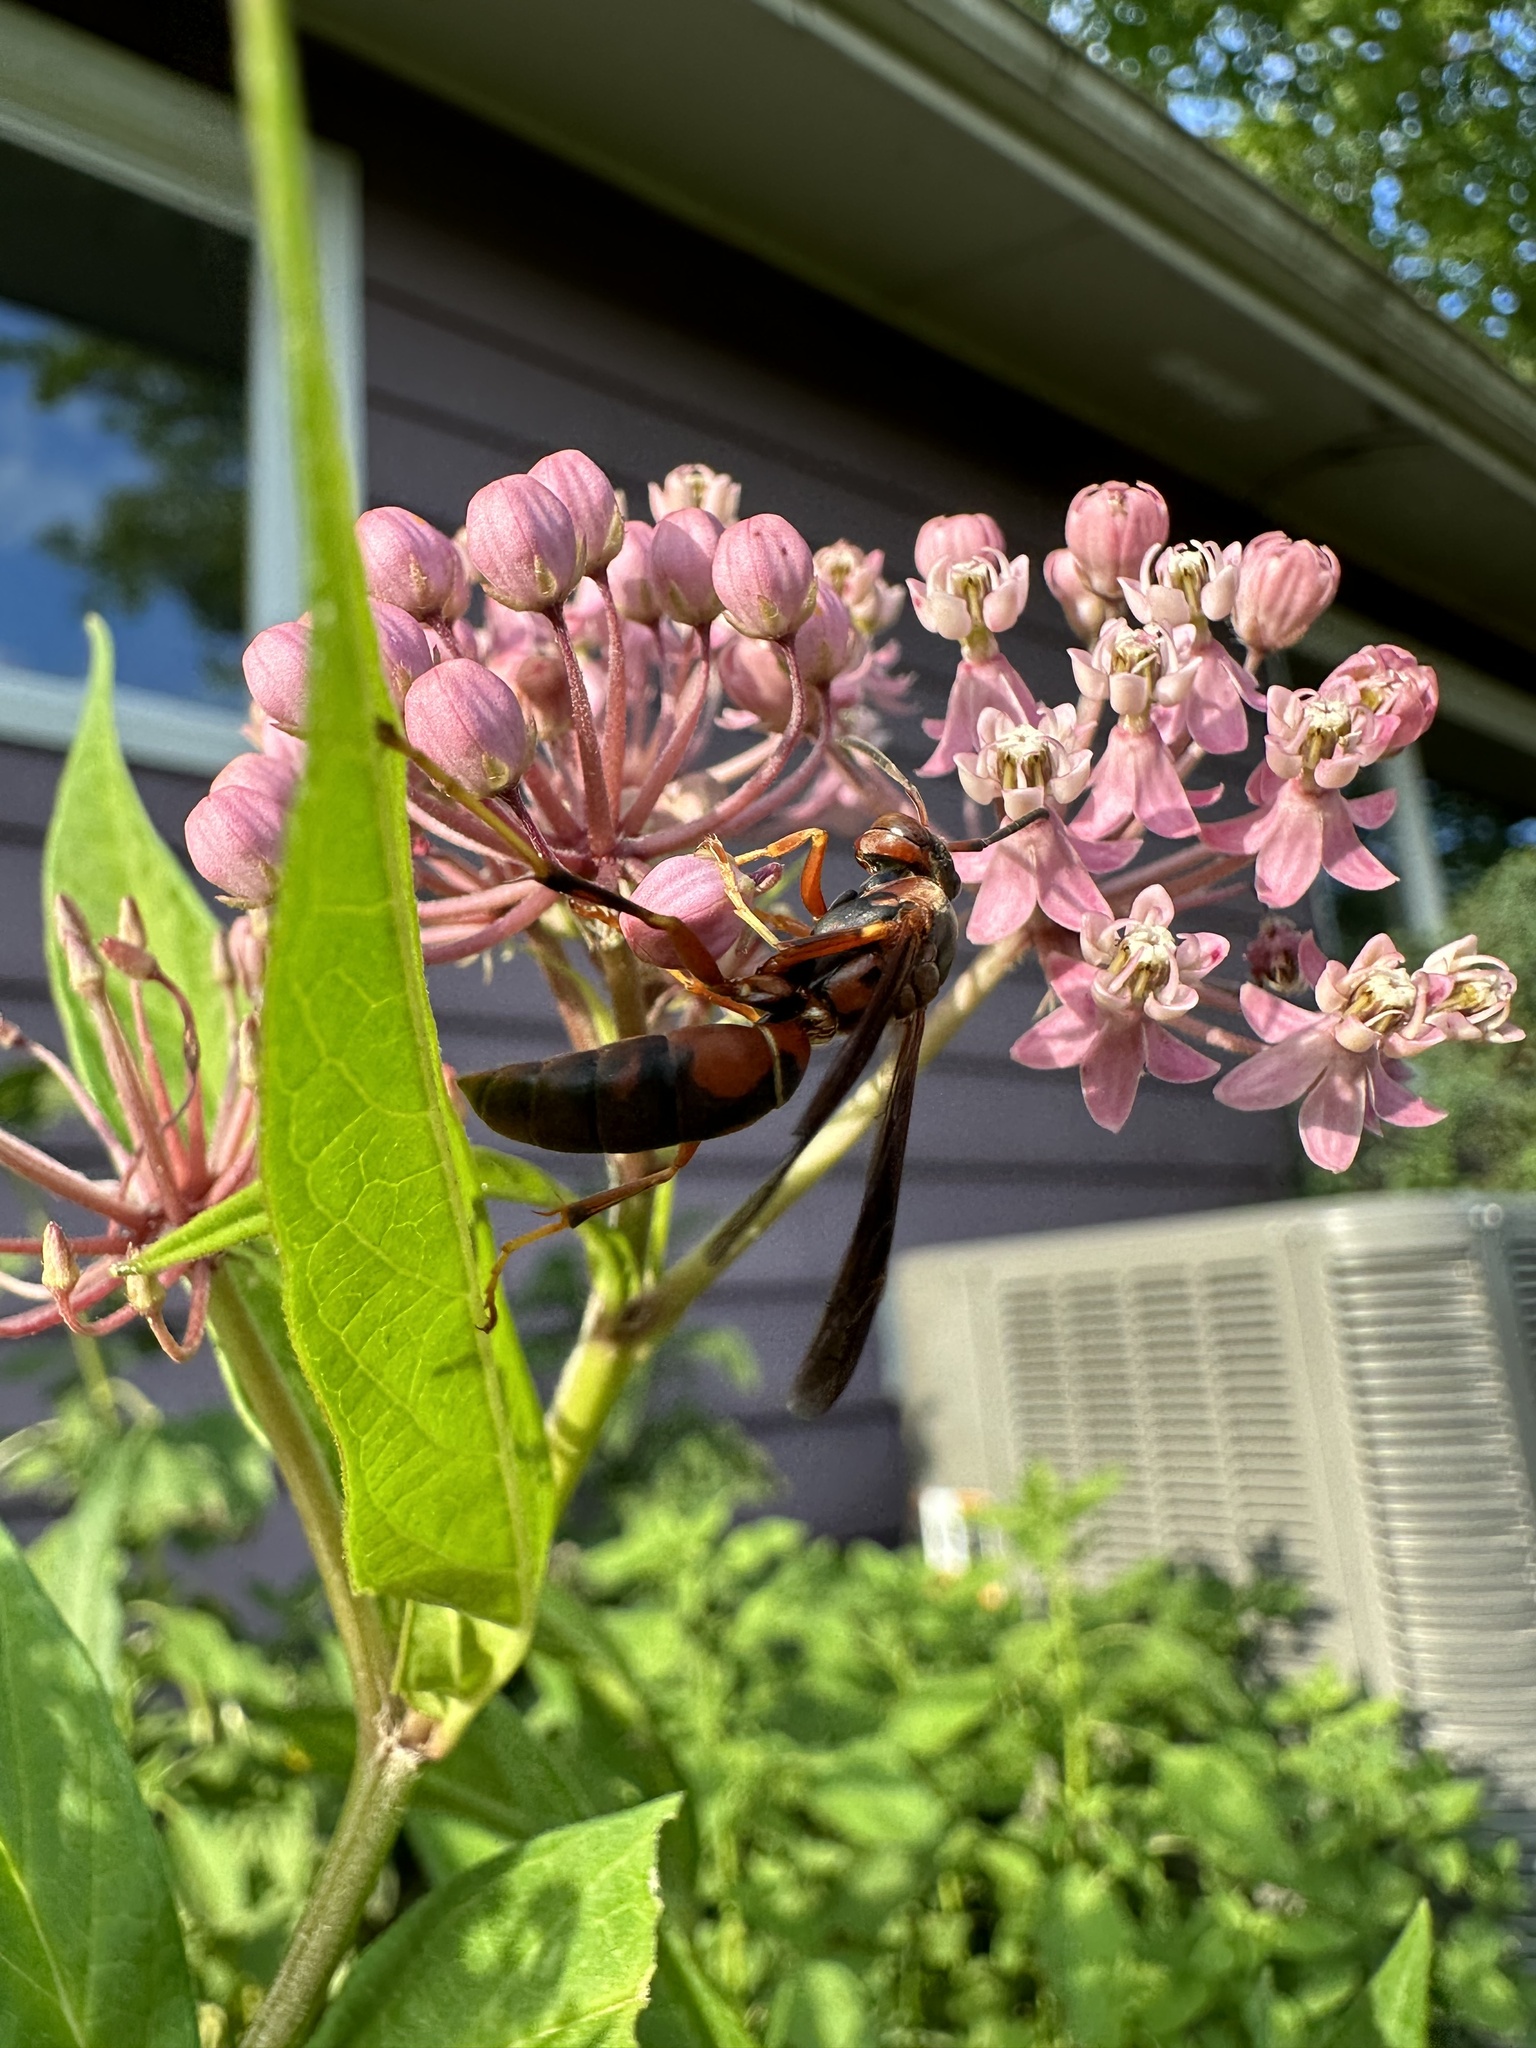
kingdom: Animalia
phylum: Arthropoda
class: Insecta
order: Hymenoptera
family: Eumenidae
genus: Polistes
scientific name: Polistes fuscatus
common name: Dark paper wasp
